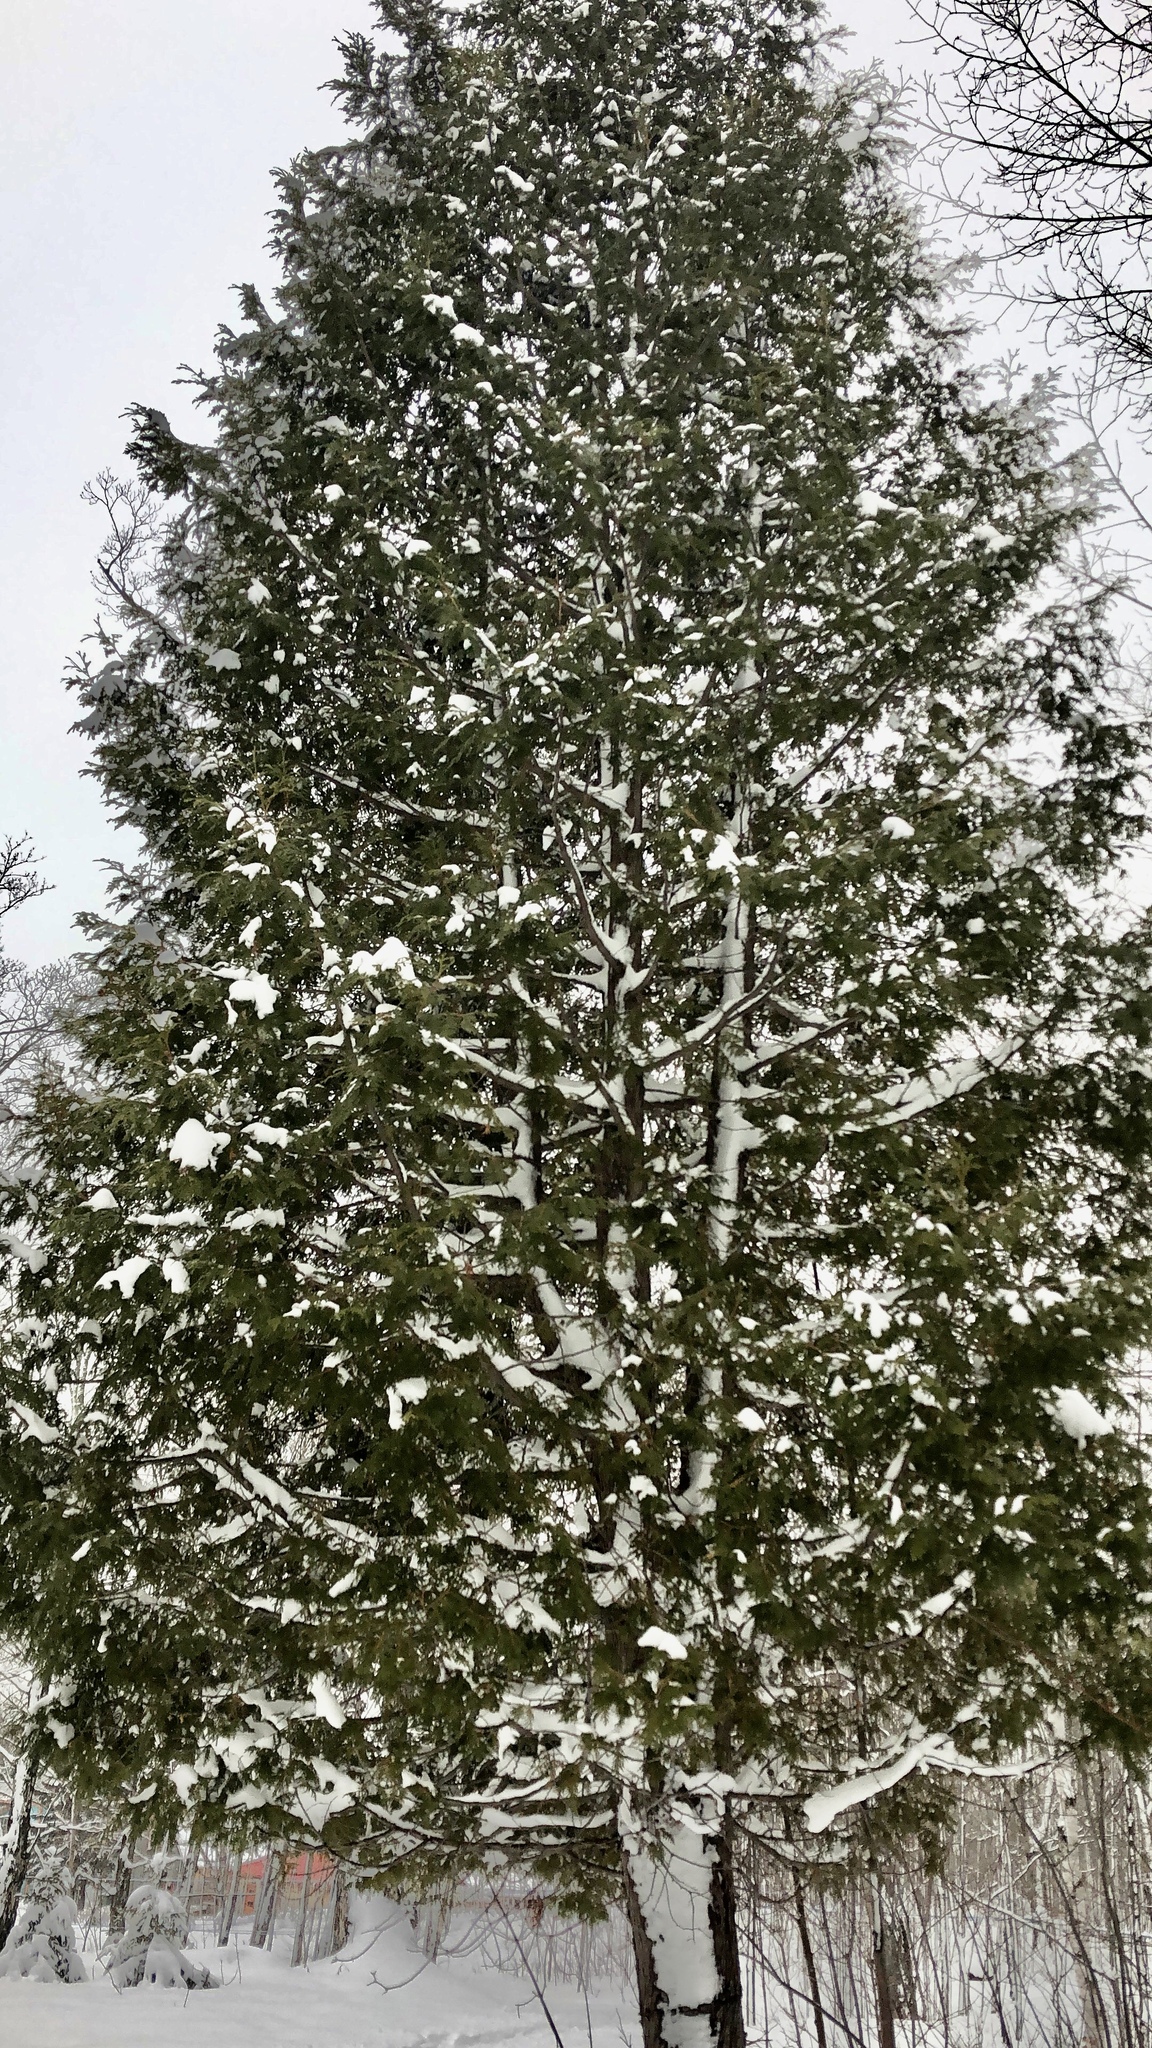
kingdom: Plantae
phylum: Tracheophyta
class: Pinopsida
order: Pinales
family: Cupressaceae
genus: Thuja
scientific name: Thuja occidentalis
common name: Northern white-cedar
